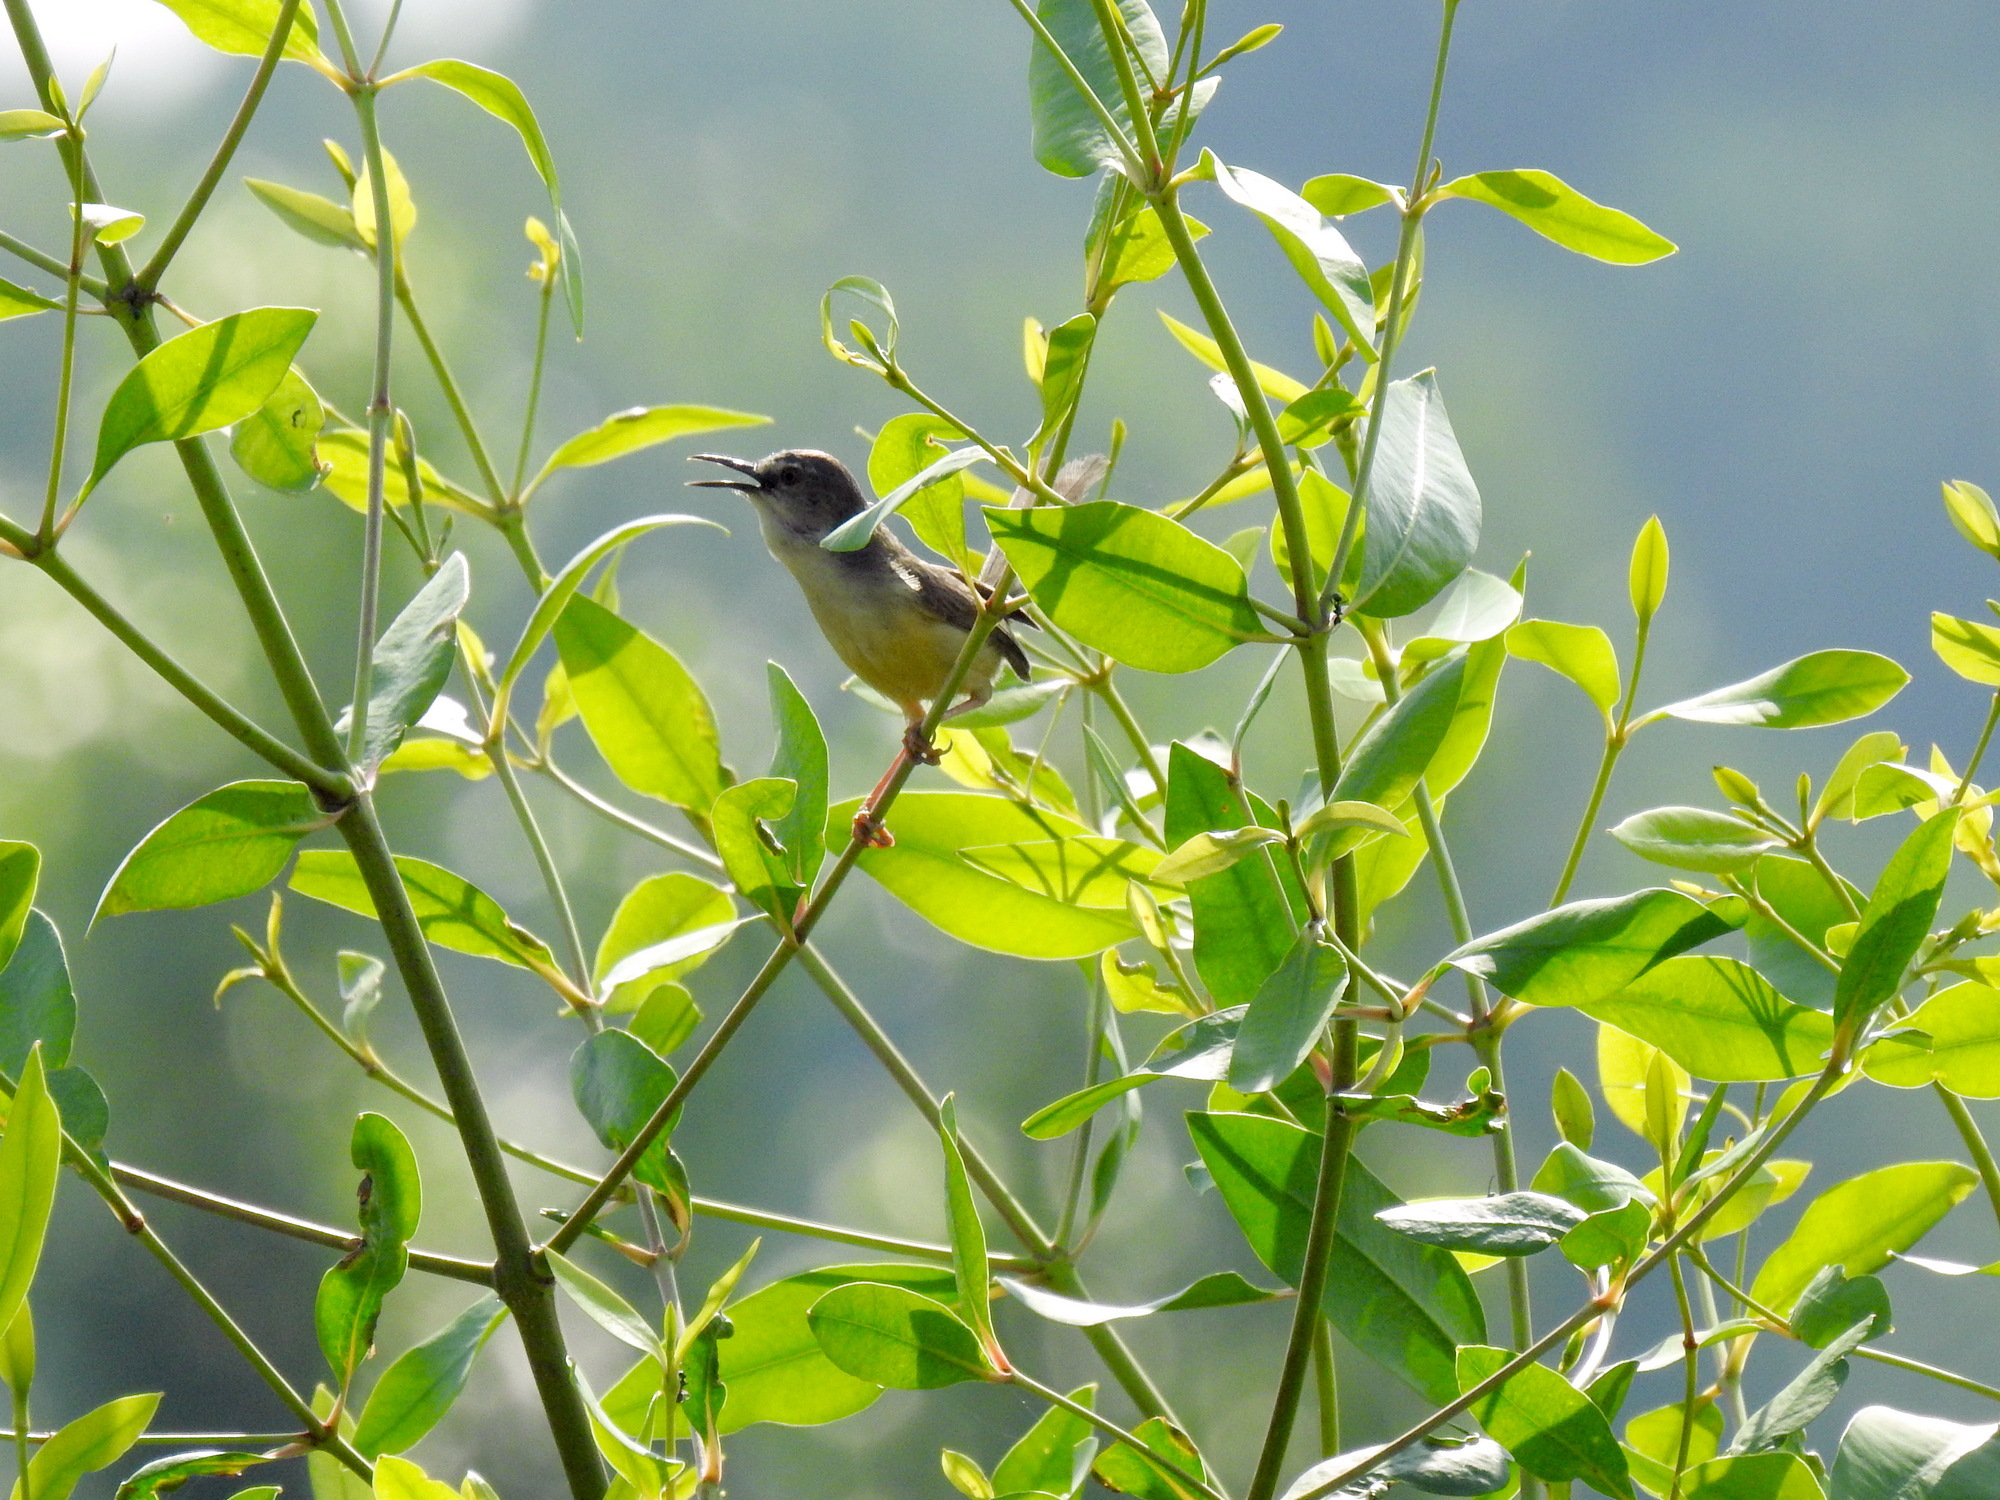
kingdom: Animalia
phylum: Chordata
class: Aves
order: Passeriformes
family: Cisticolidae
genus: Prinia
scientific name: Prinia flaviventris
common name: Yellow-bellied prinia
